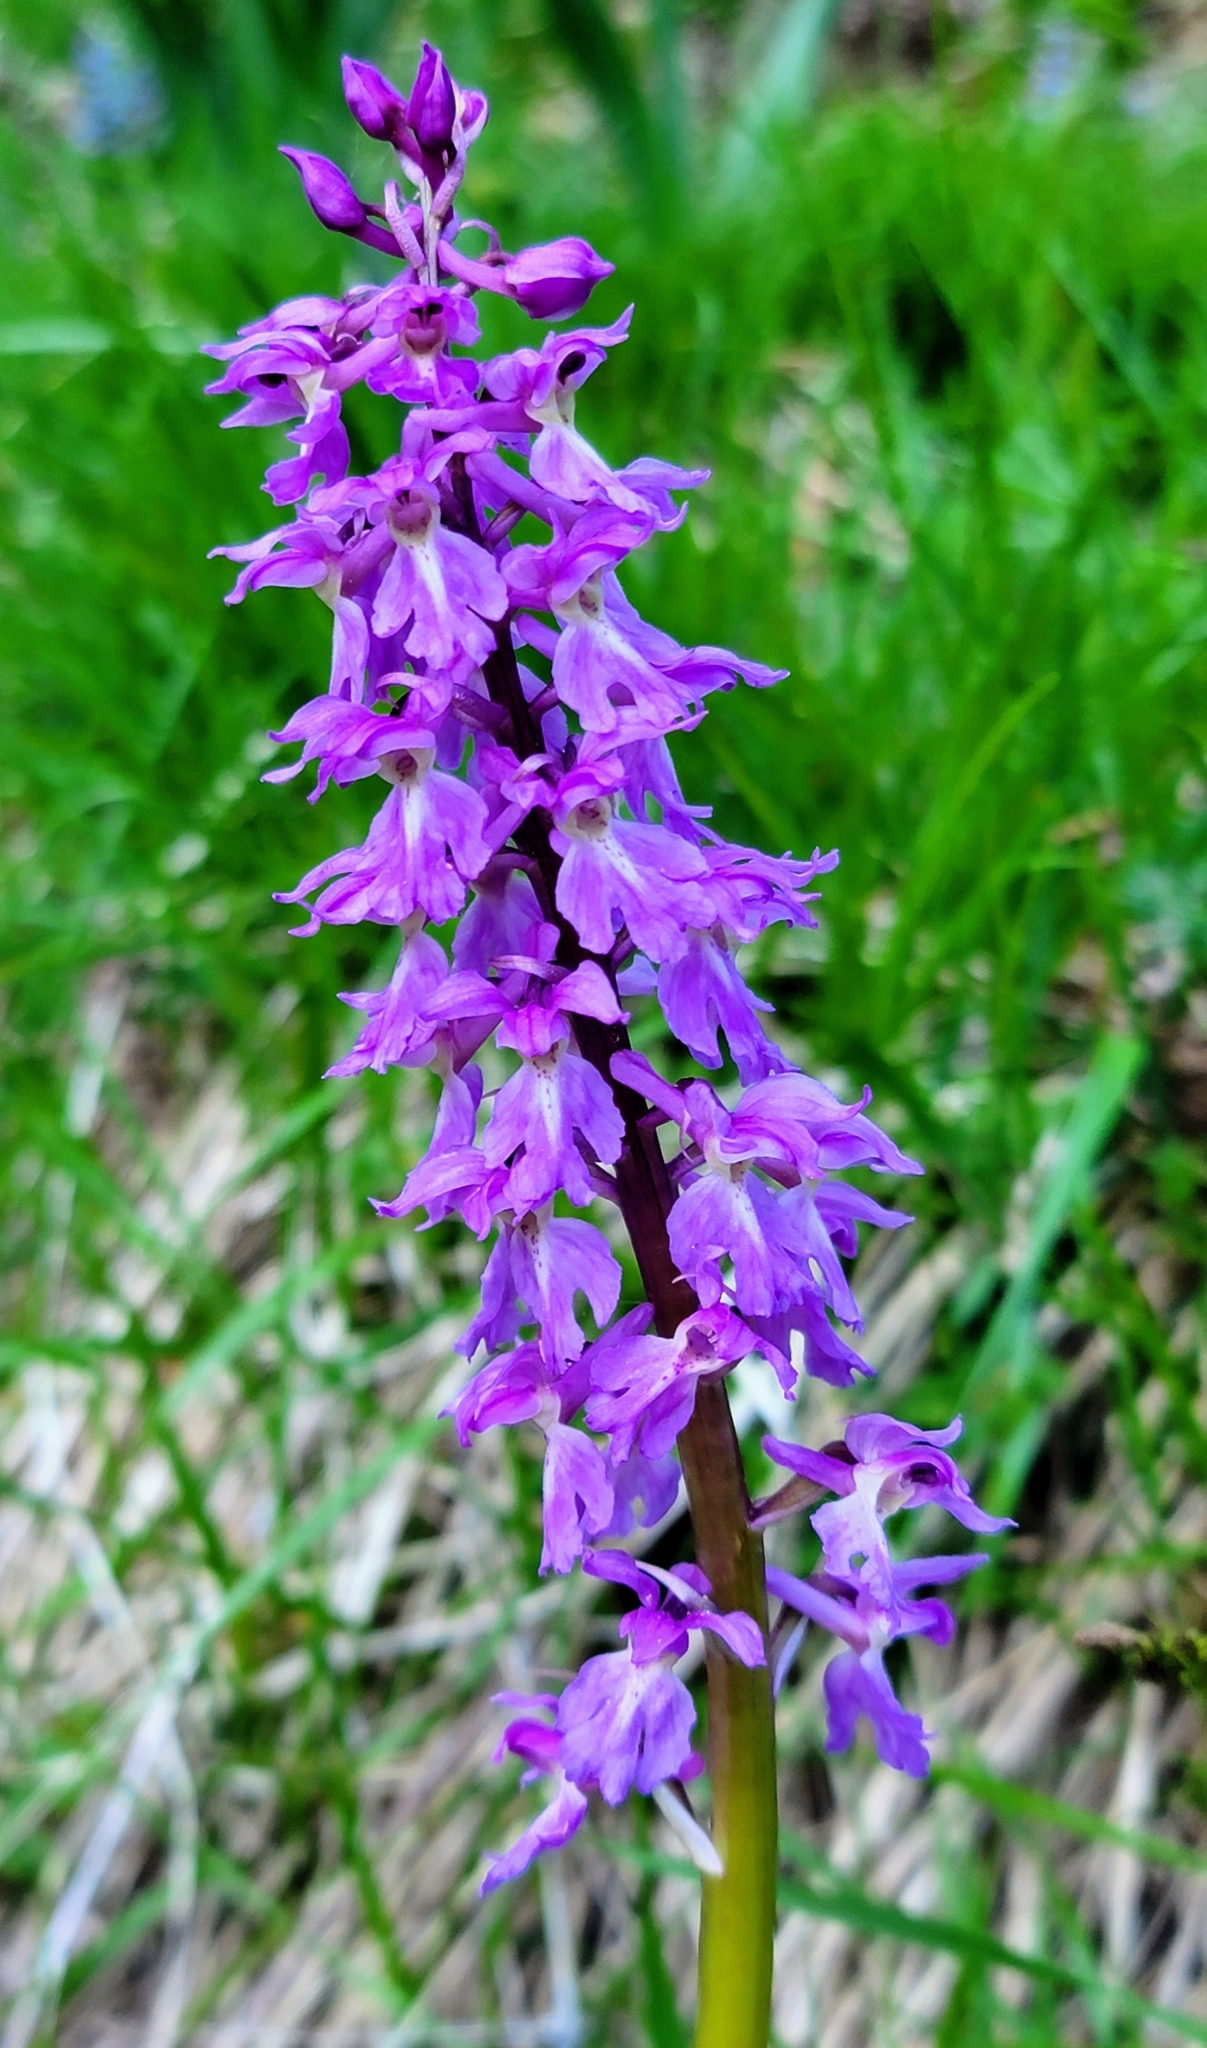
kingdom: Plantae
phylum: Tracheophyta
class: Liliopsida
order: Asparagales
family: Orchidaceae
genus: Orchis
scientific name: Orchis mascula
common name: Early-purple orchid
